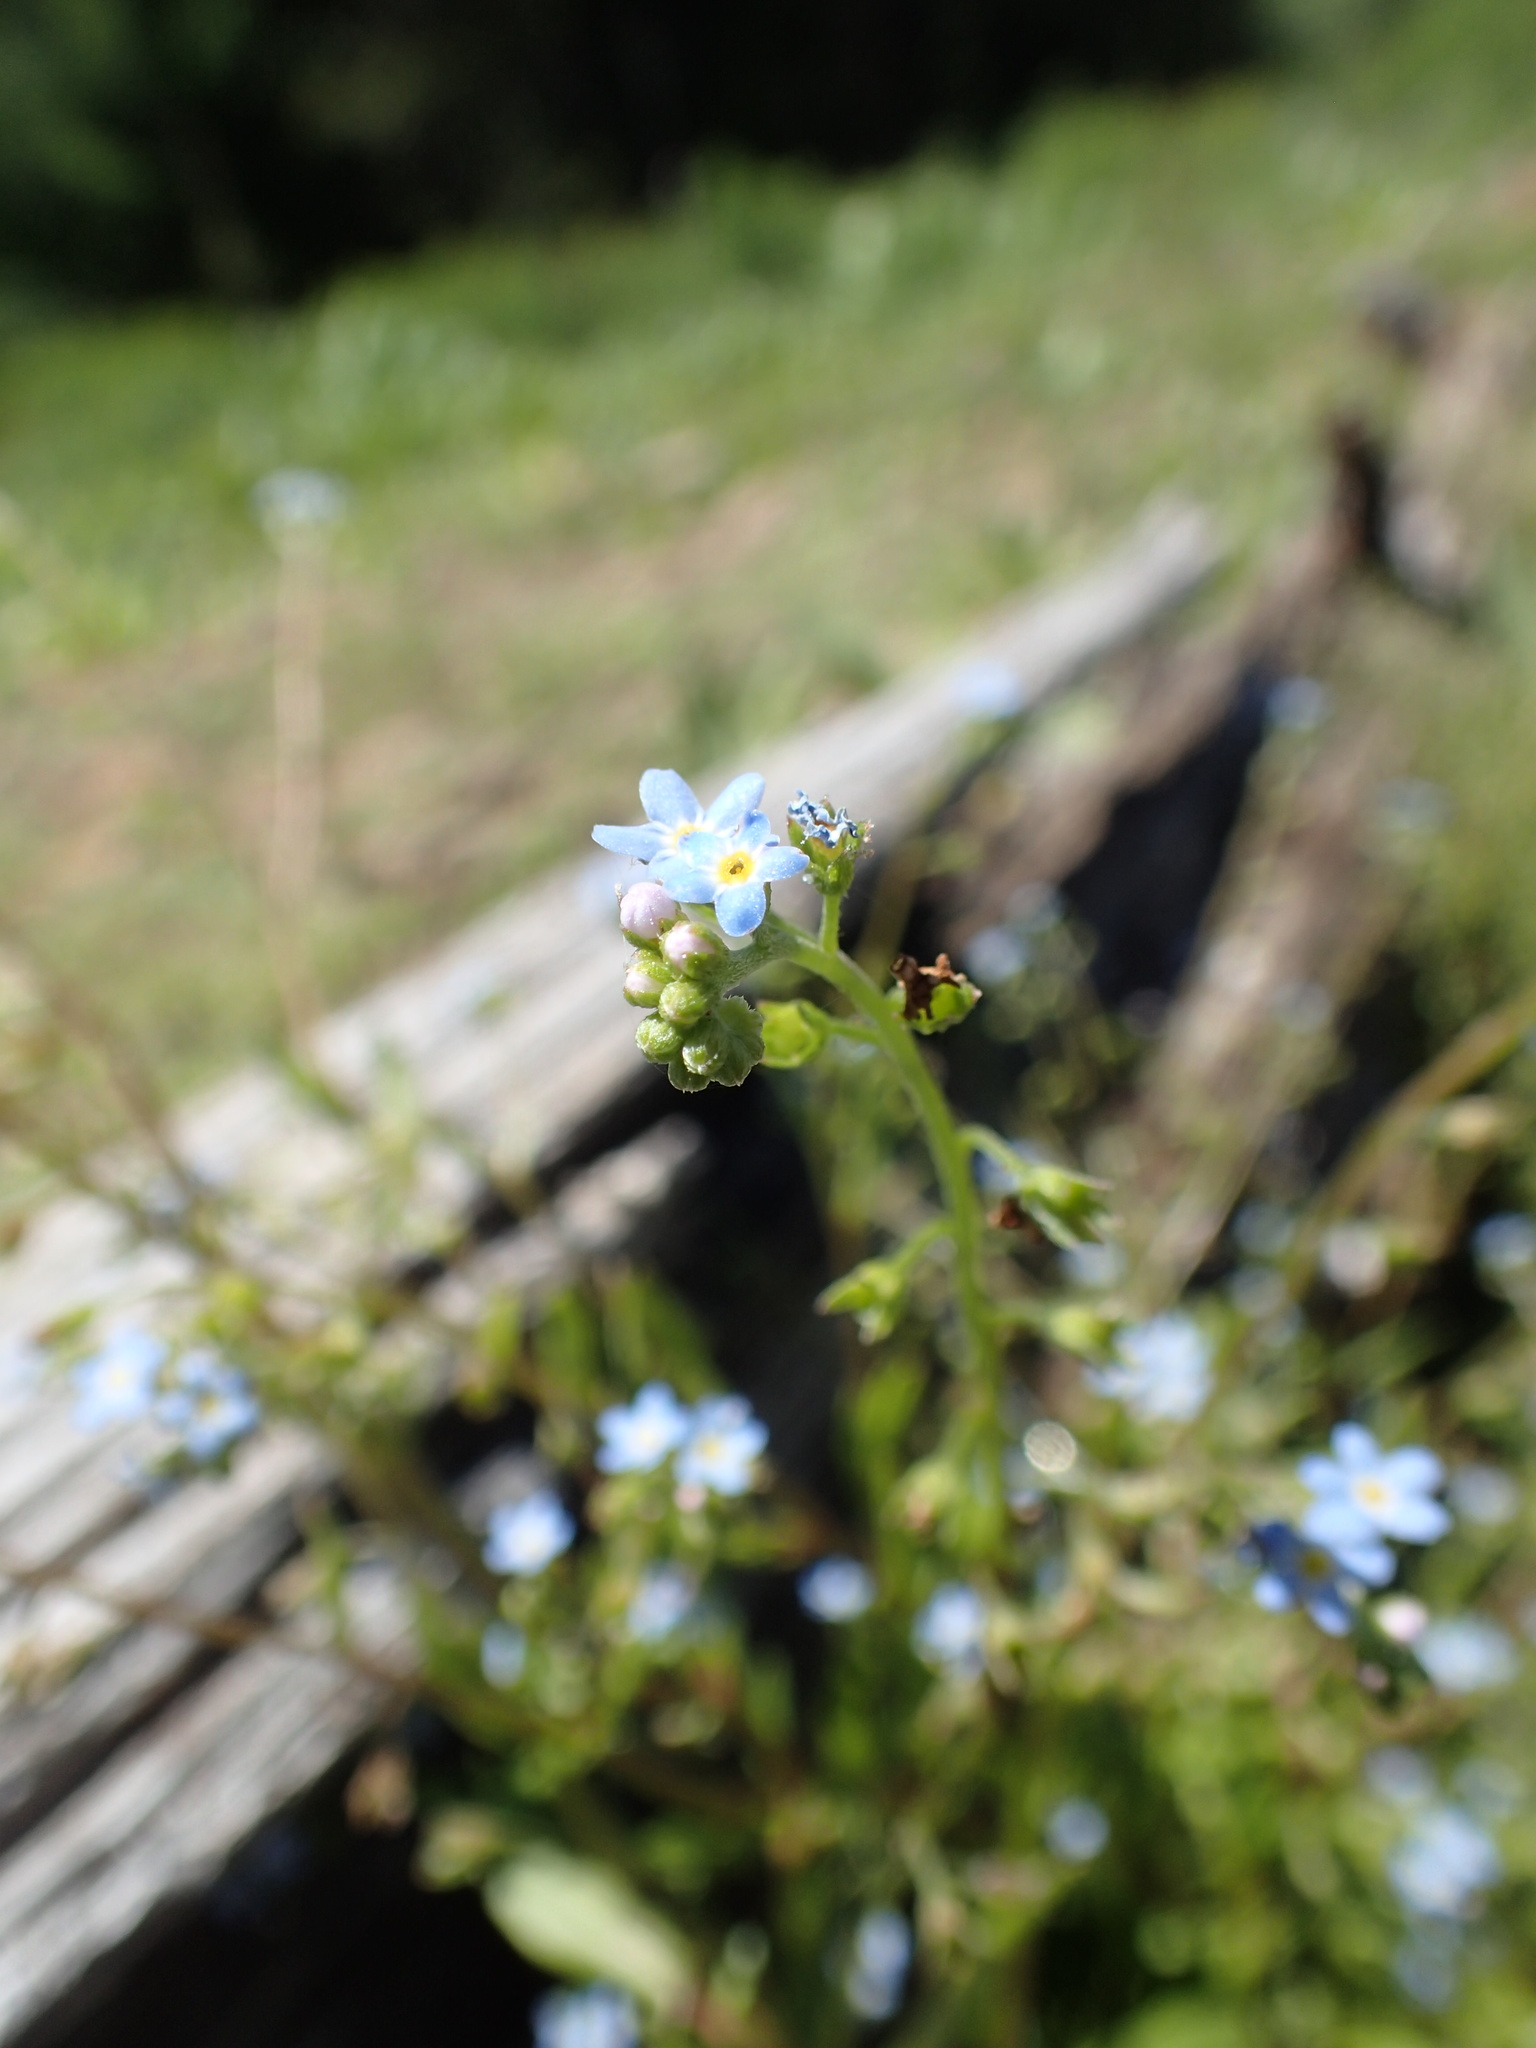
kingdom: Plantae
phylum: Tracheophyta
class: Magnoliopsida
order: Boraginales
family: Boraginaceae
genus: Myosotis
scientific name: Myosotis laxa
